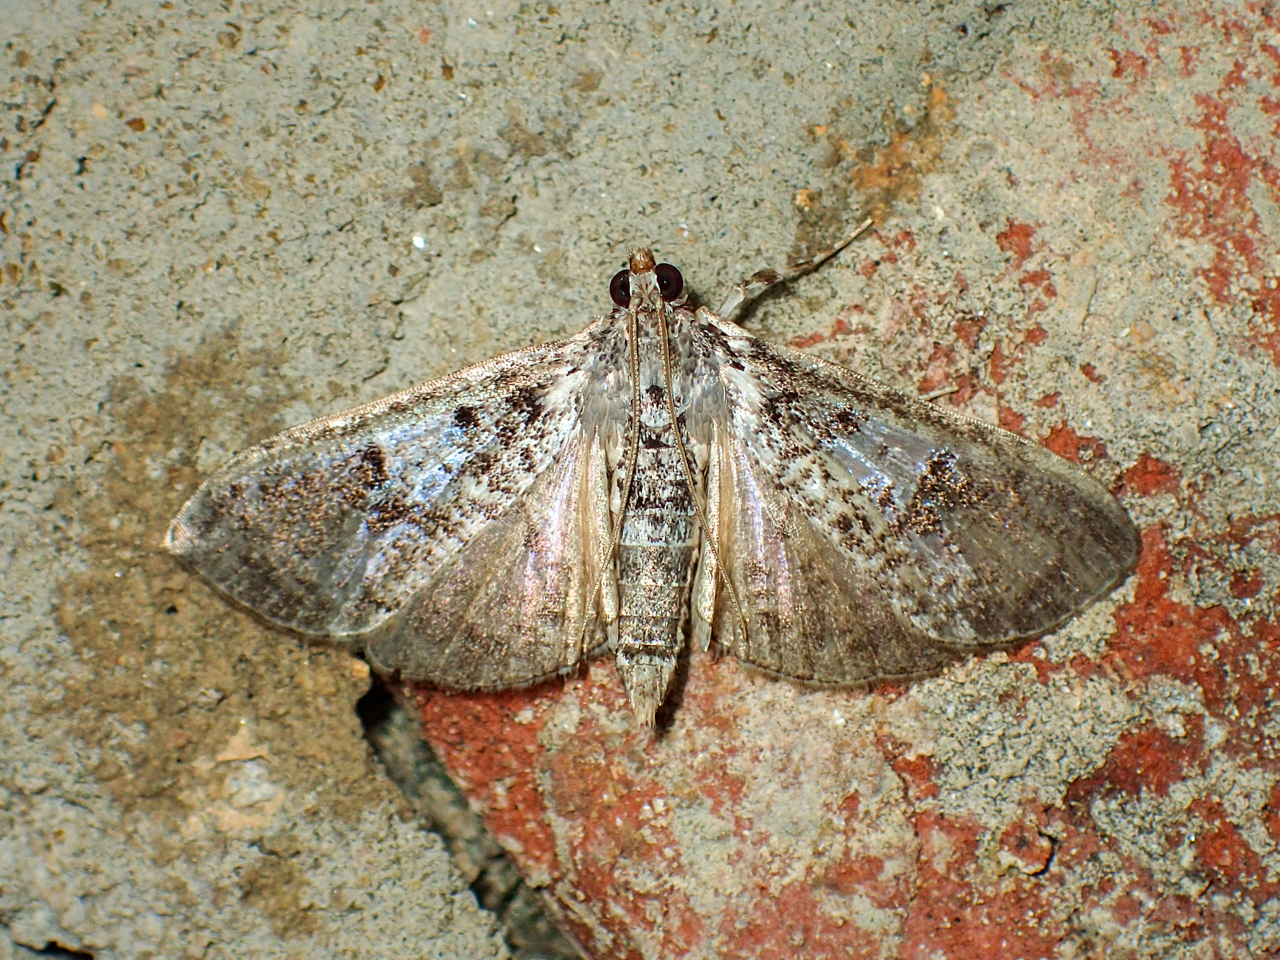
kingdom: Animalia
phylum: Arthropoda
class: Insecta
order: Lepidoptera
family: Crambidae
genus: Palpita
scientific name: Palpita magniferalis
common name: Splendid palpita moth
